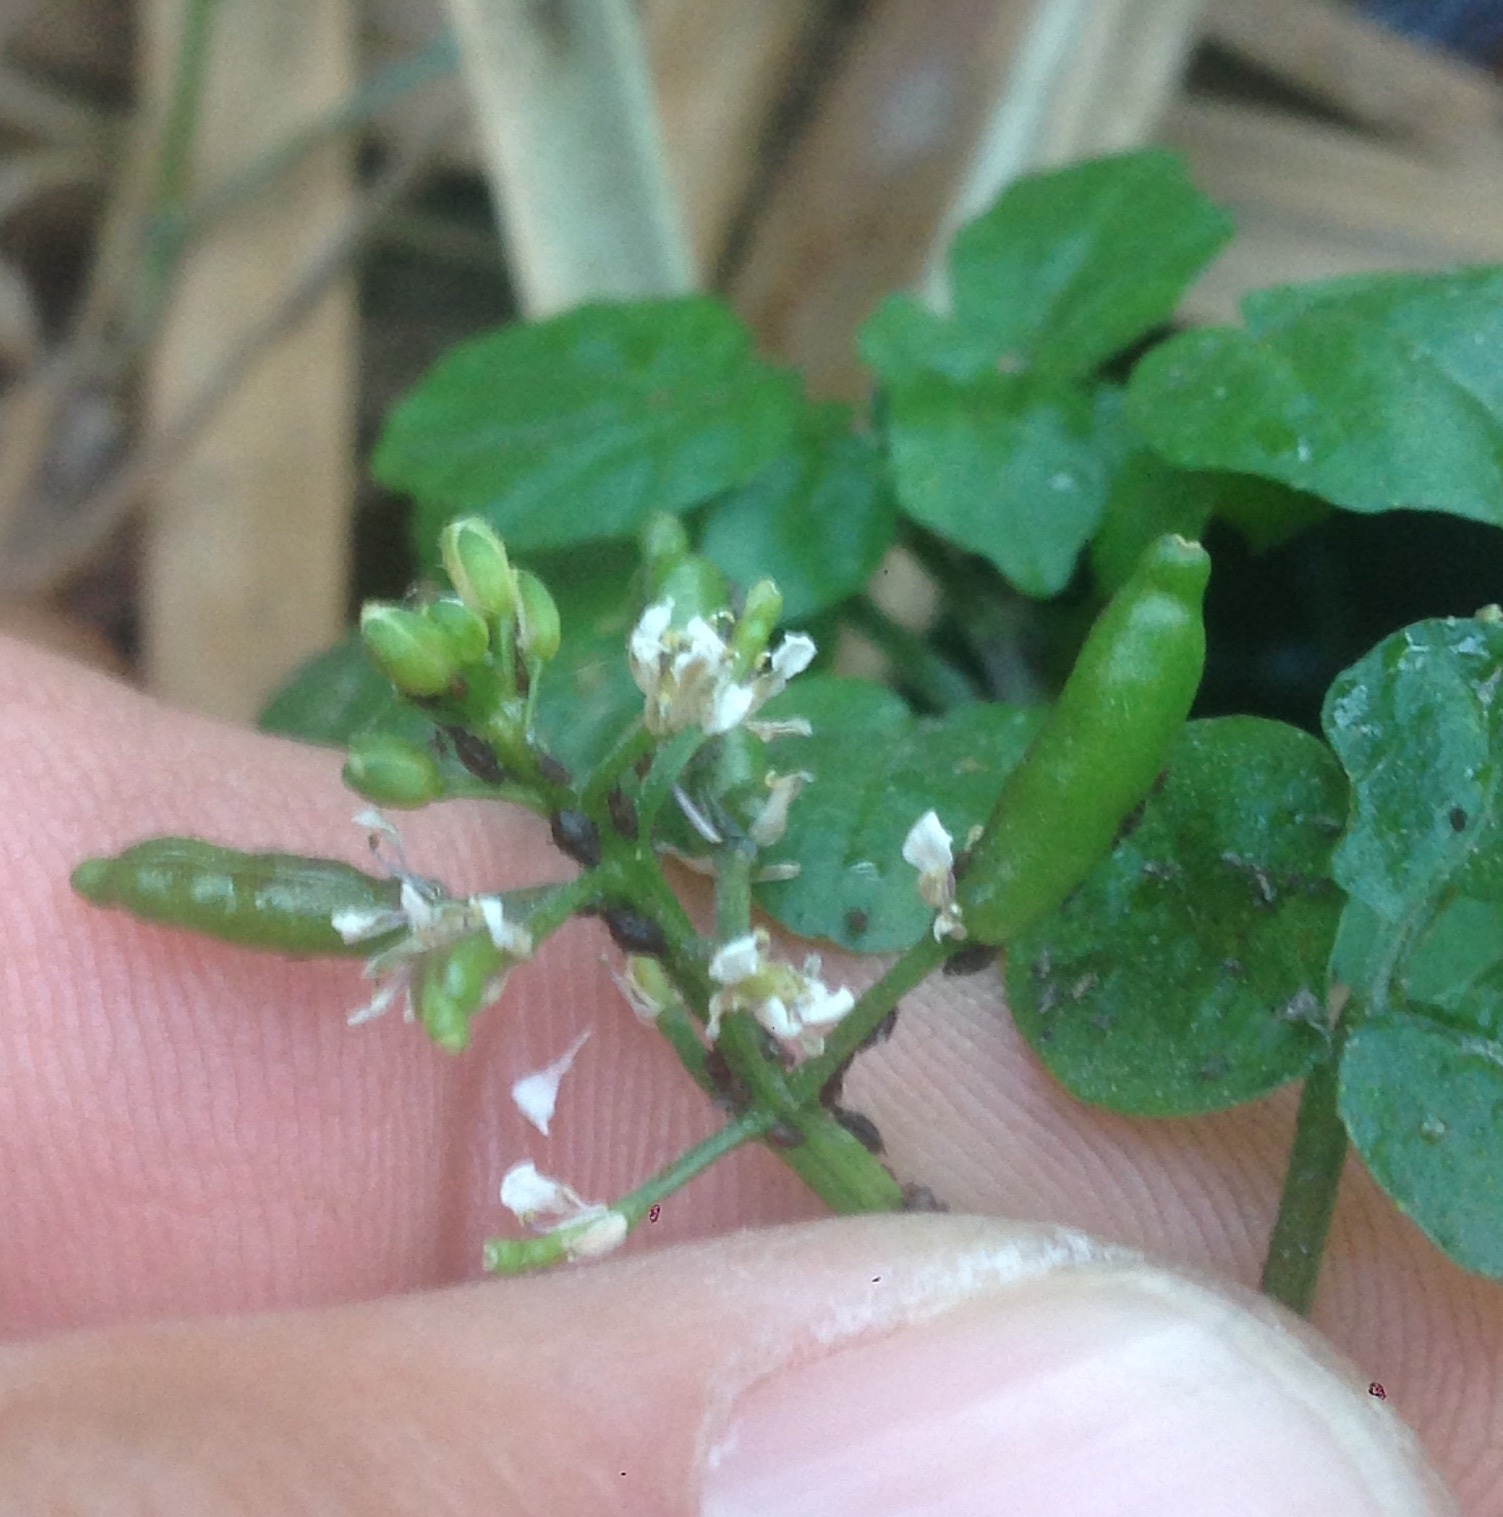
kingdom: Plantae
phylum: Tracheophyta
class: Magnoliopsida
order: Brassicales
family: Brassicaceae
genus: Nasturtium
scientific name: Nasturtium officinale
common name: Watercress
